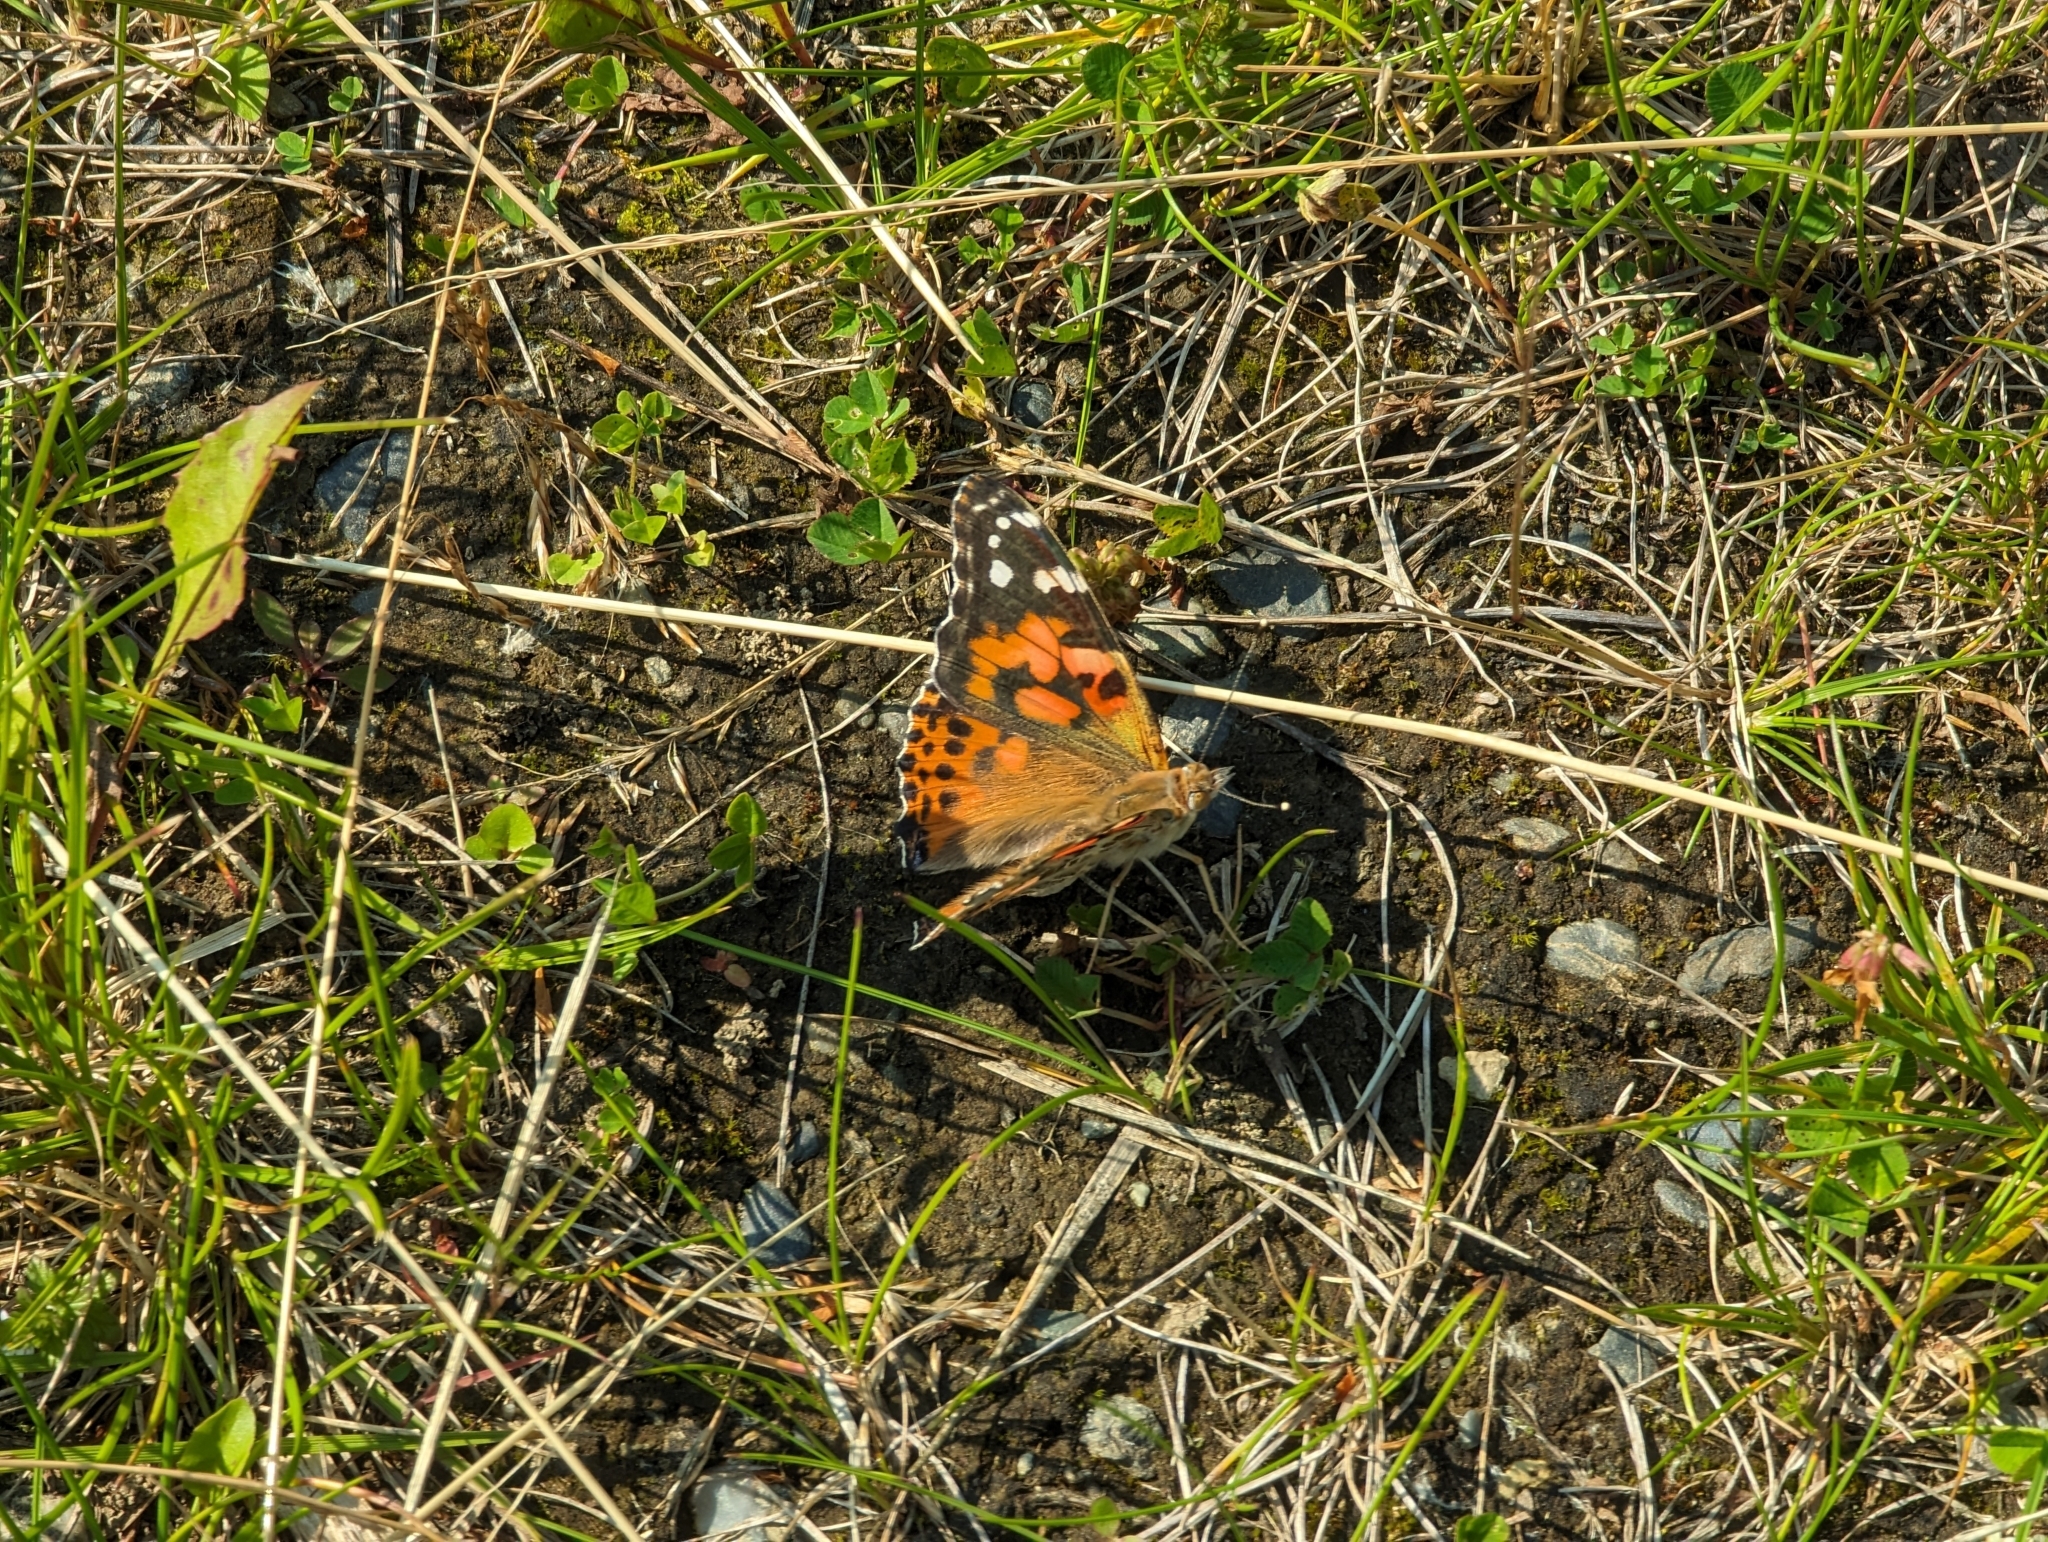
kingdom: Animalia
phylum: Arthropoda
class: Insecta
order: Lepidoptera
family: Nymphalidae
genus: Vanessa
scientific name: Vanessa cardui
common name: Painted lady
